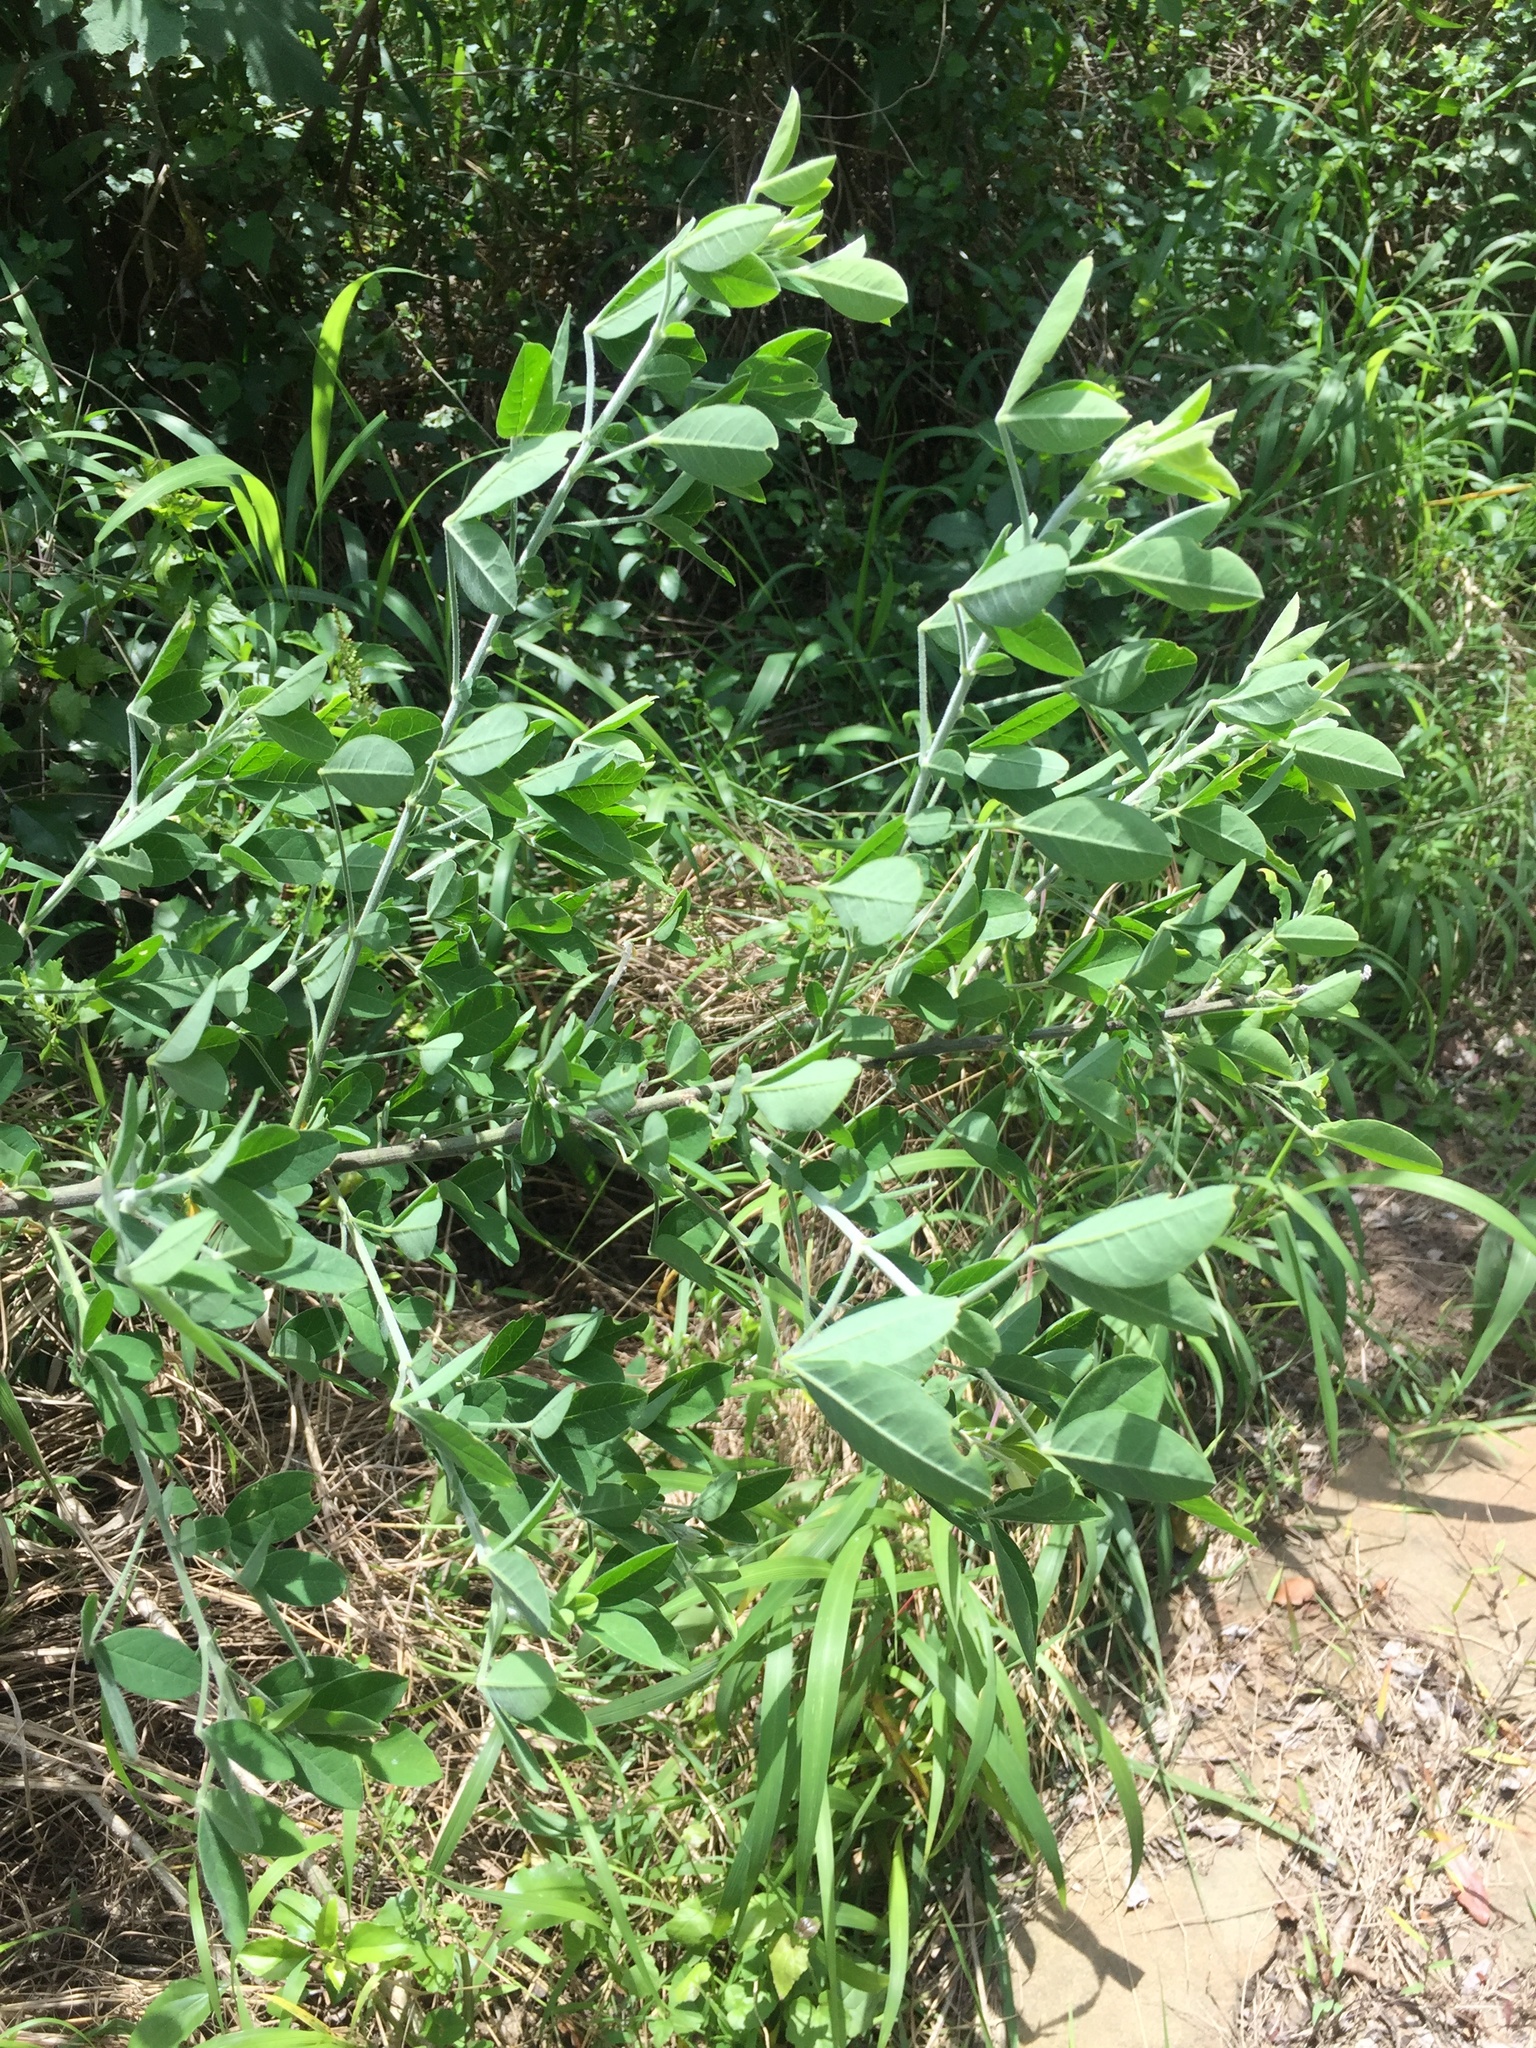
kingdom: Plantae
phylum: Tracheophyta
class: Magnoliopsida
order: Fabales
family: Fabaceae
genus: Crotalaria
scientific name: Crotalaria capensis
